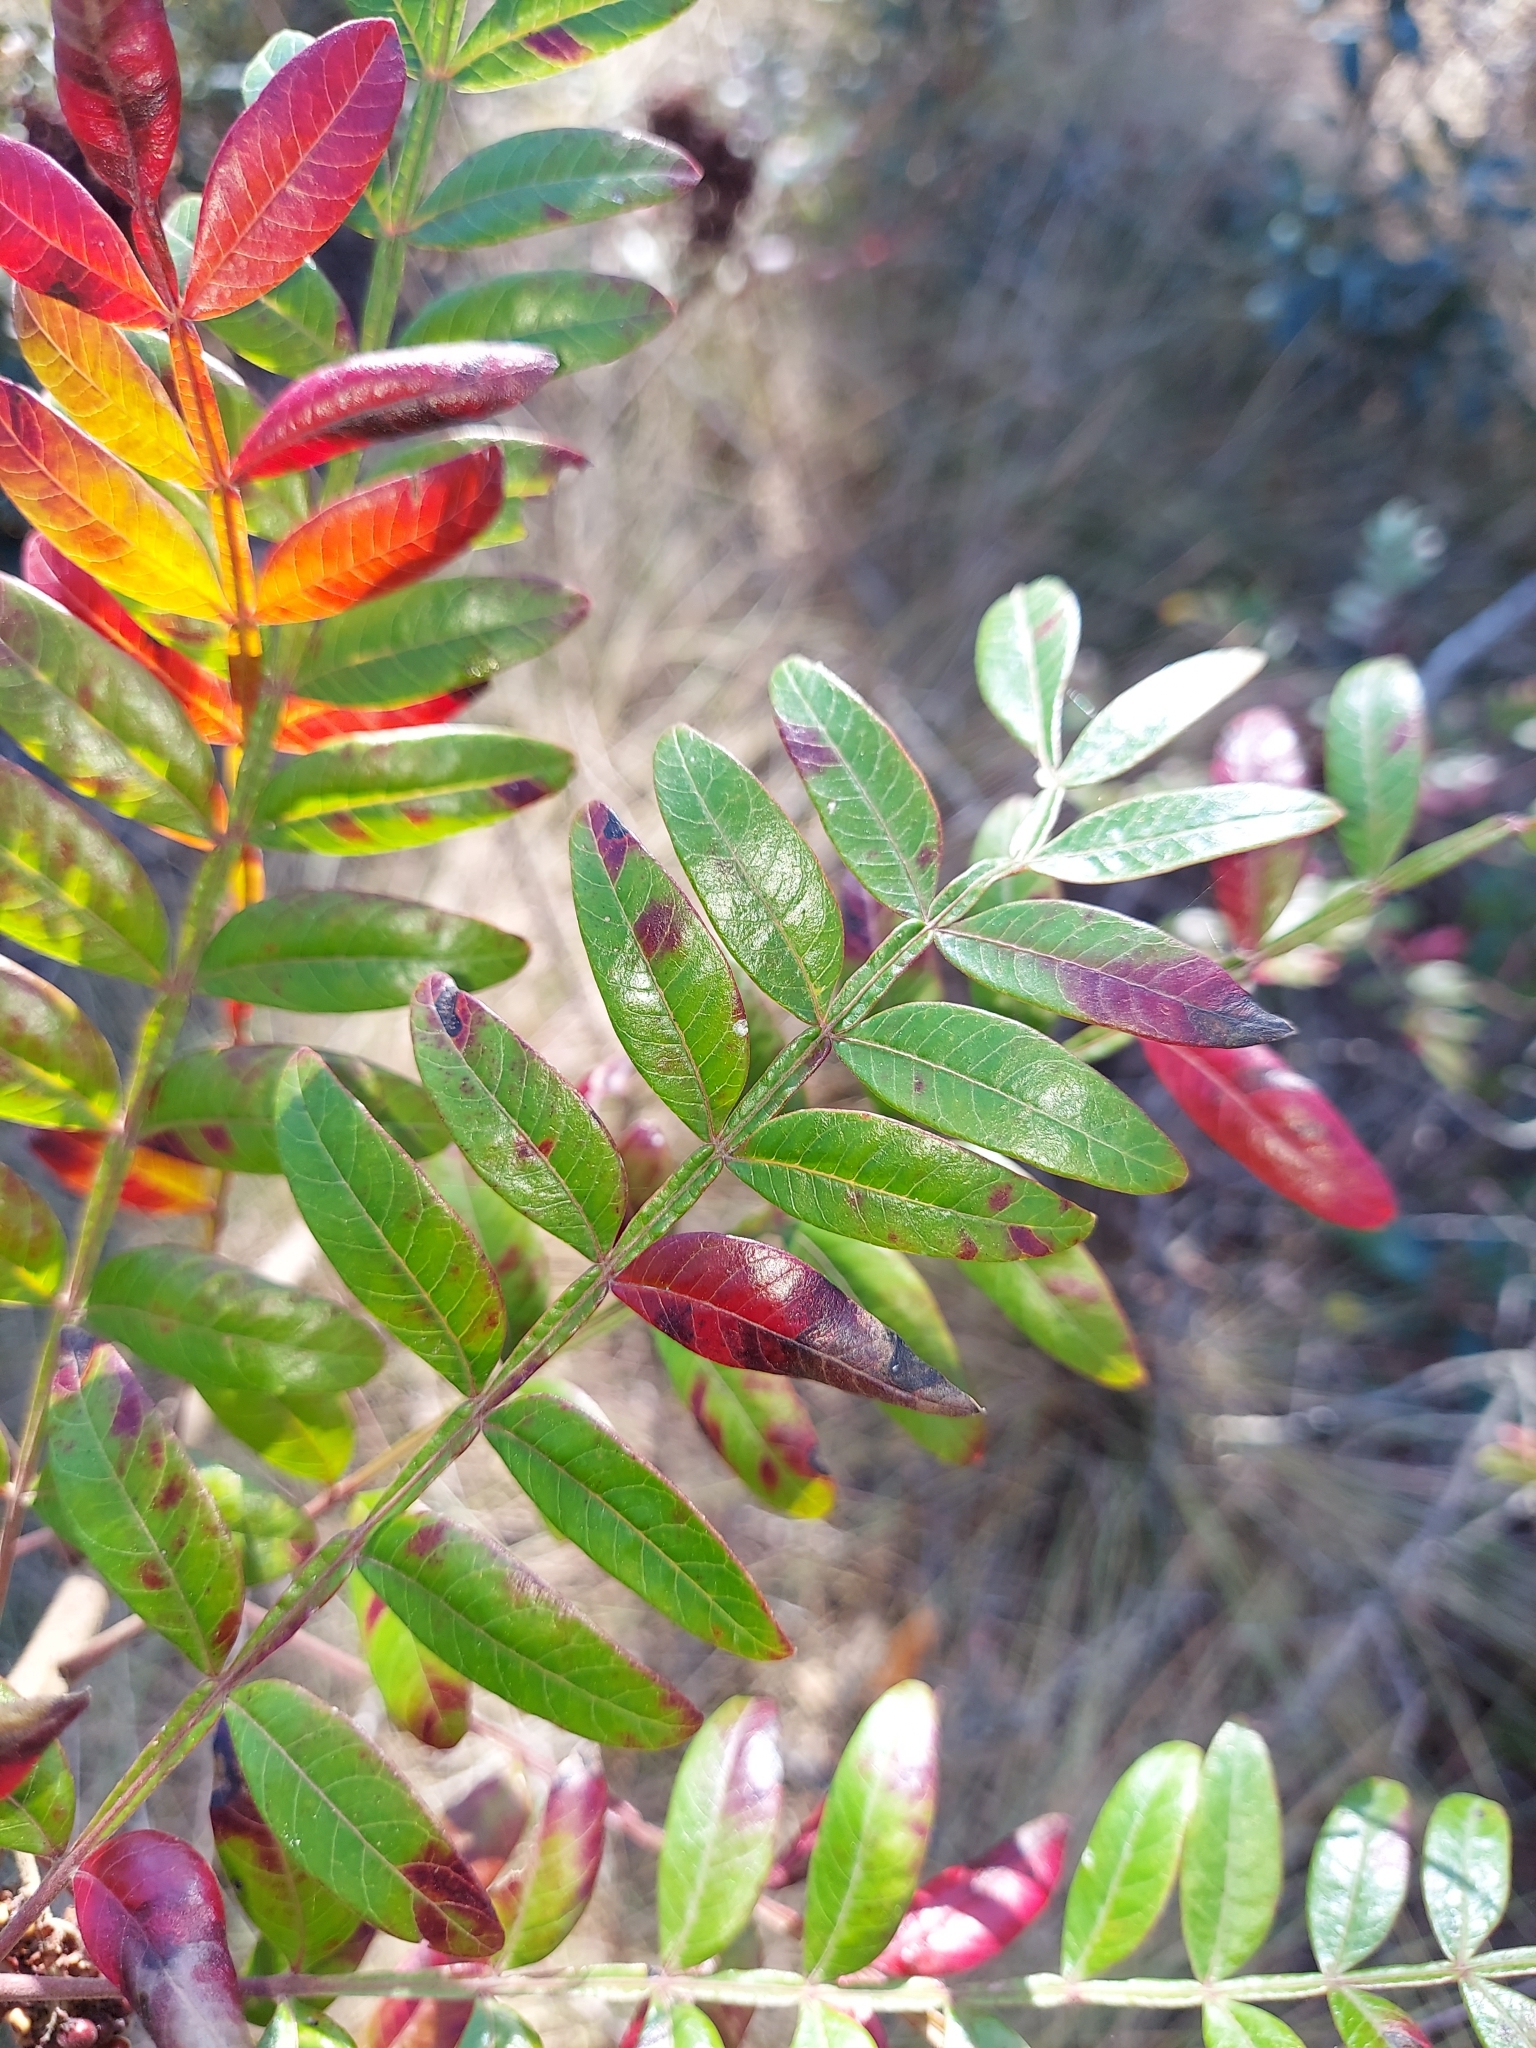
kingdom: Plantae
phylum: Tracheophyta
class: Magnoliopsida
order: Sapindales
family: Anacardiaceae
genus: Rhus
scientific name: Rhus copallina
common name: Shining sumac
